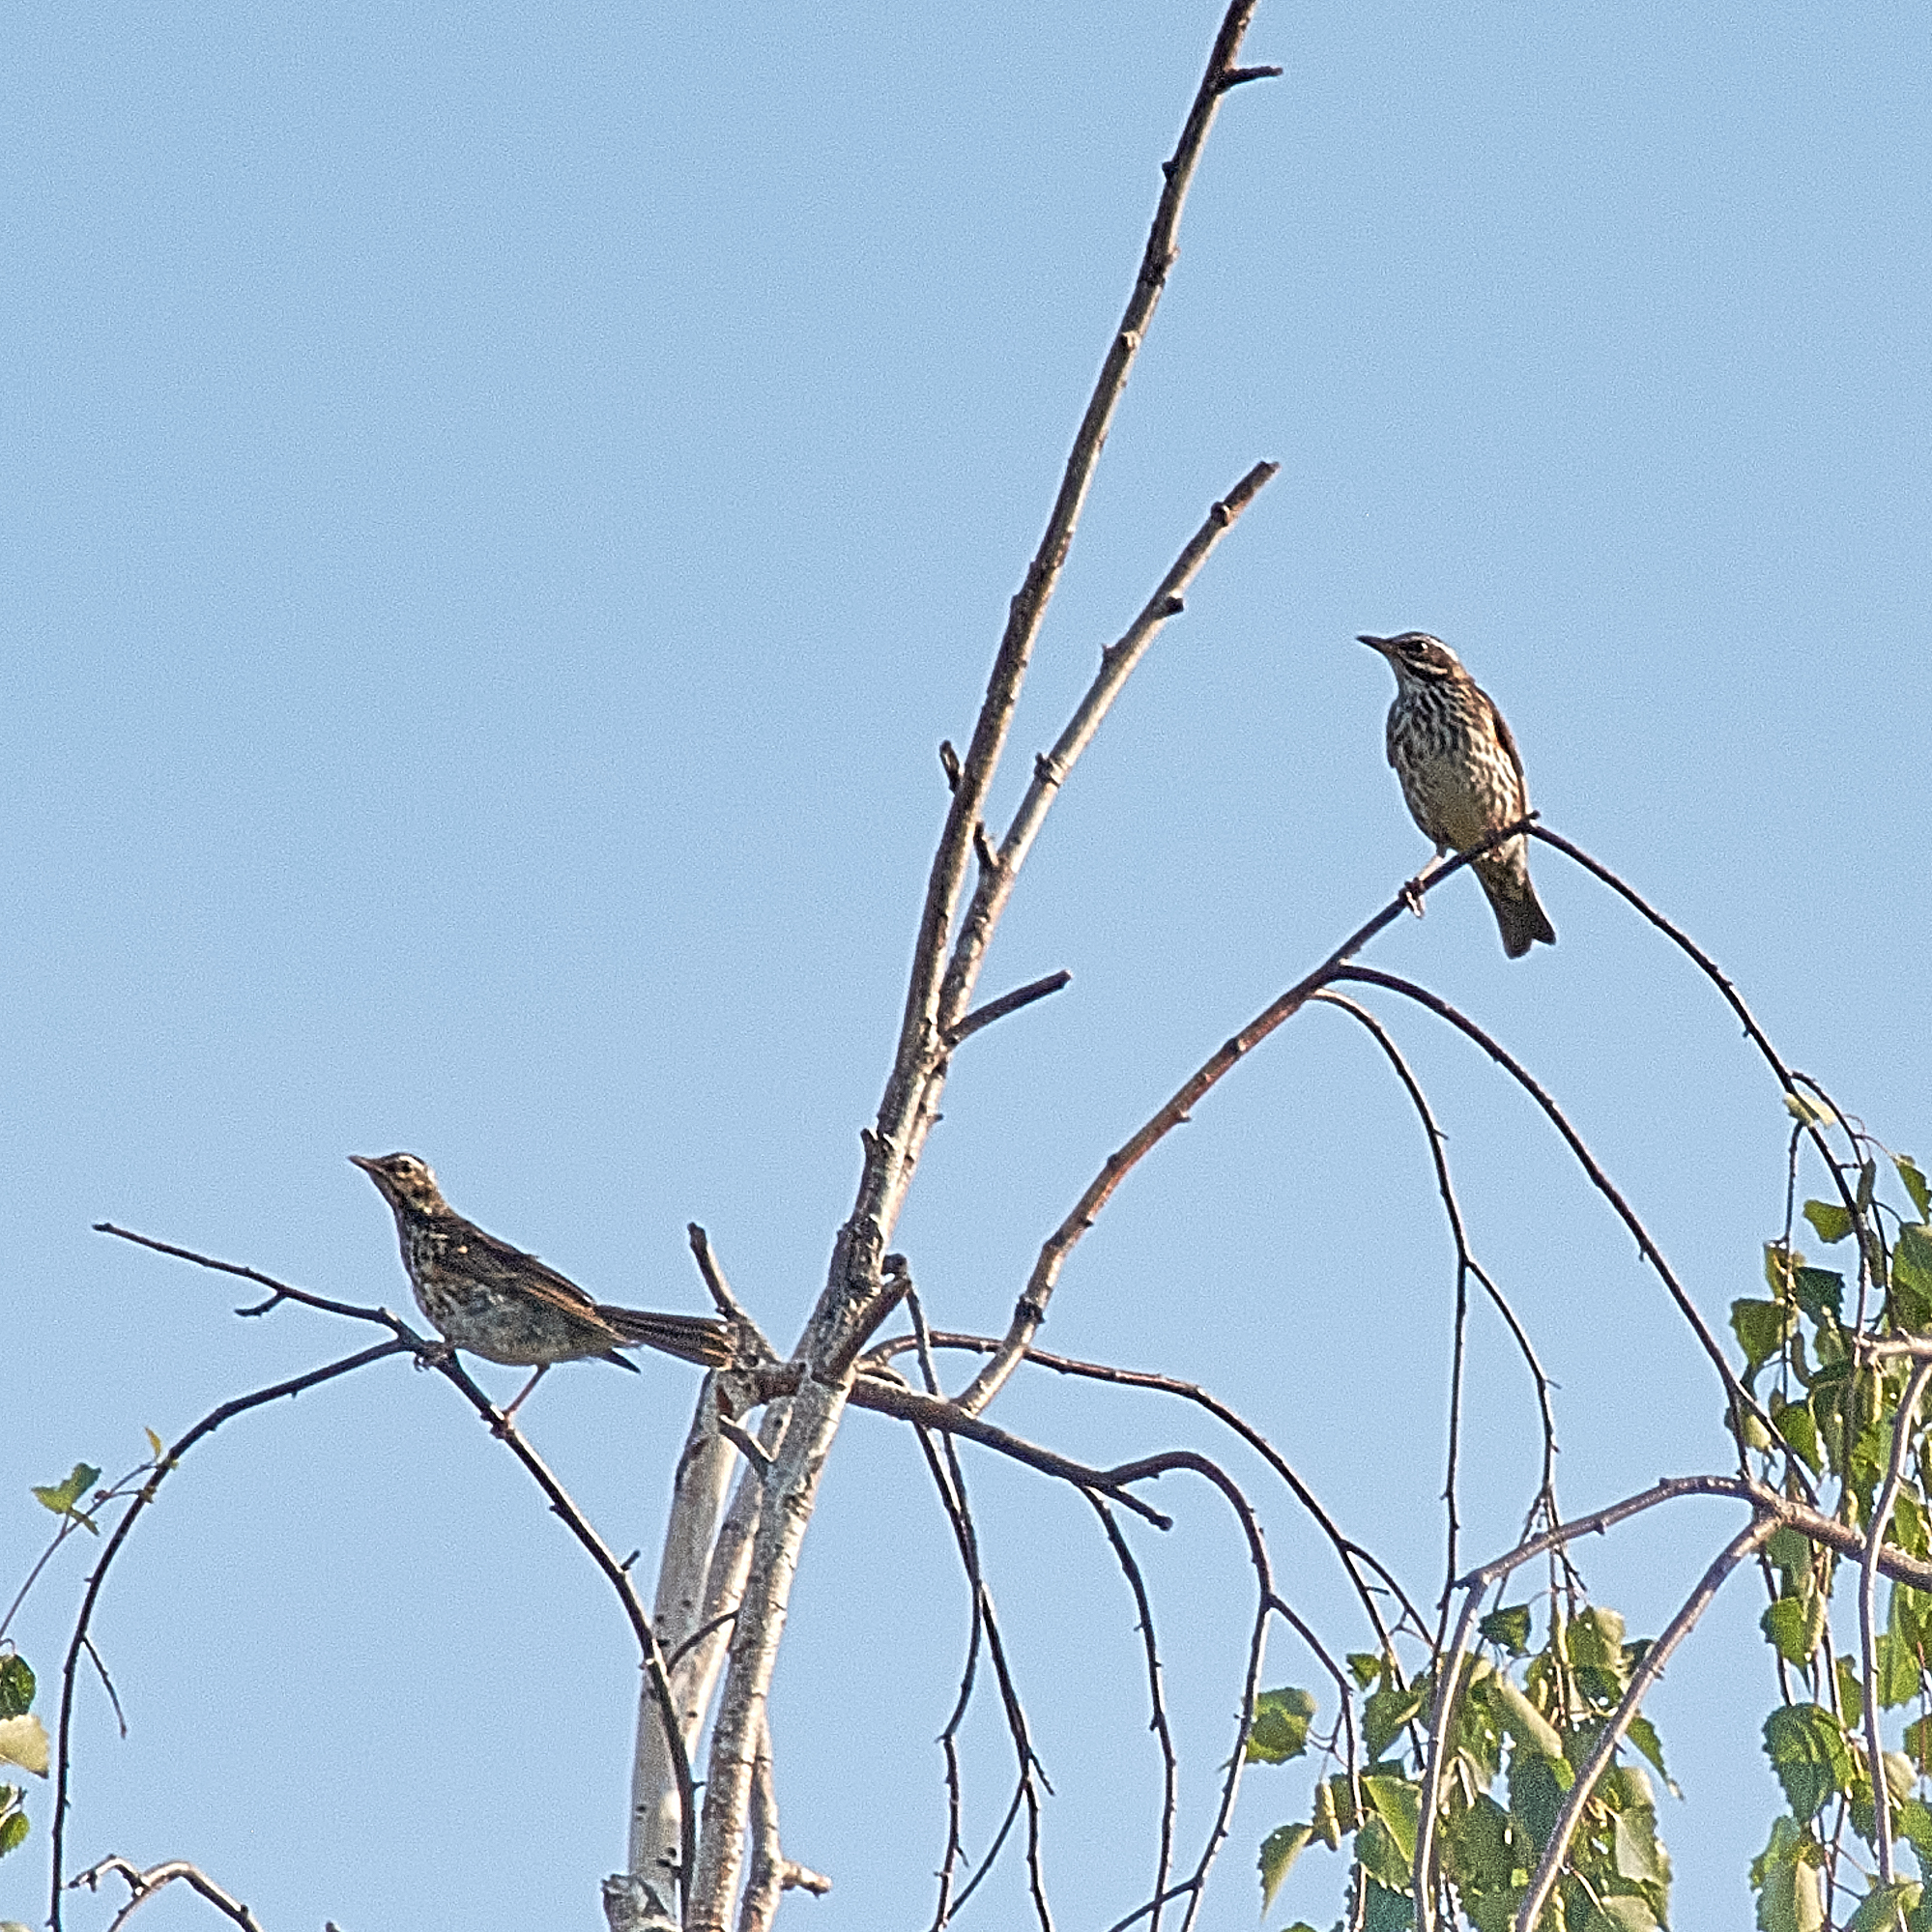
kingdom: Animalia
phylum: Chordata
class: Aves
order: Passeriformes
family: Turdidae
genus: Turdus
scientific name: Turdus iliacus
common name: Redwing
